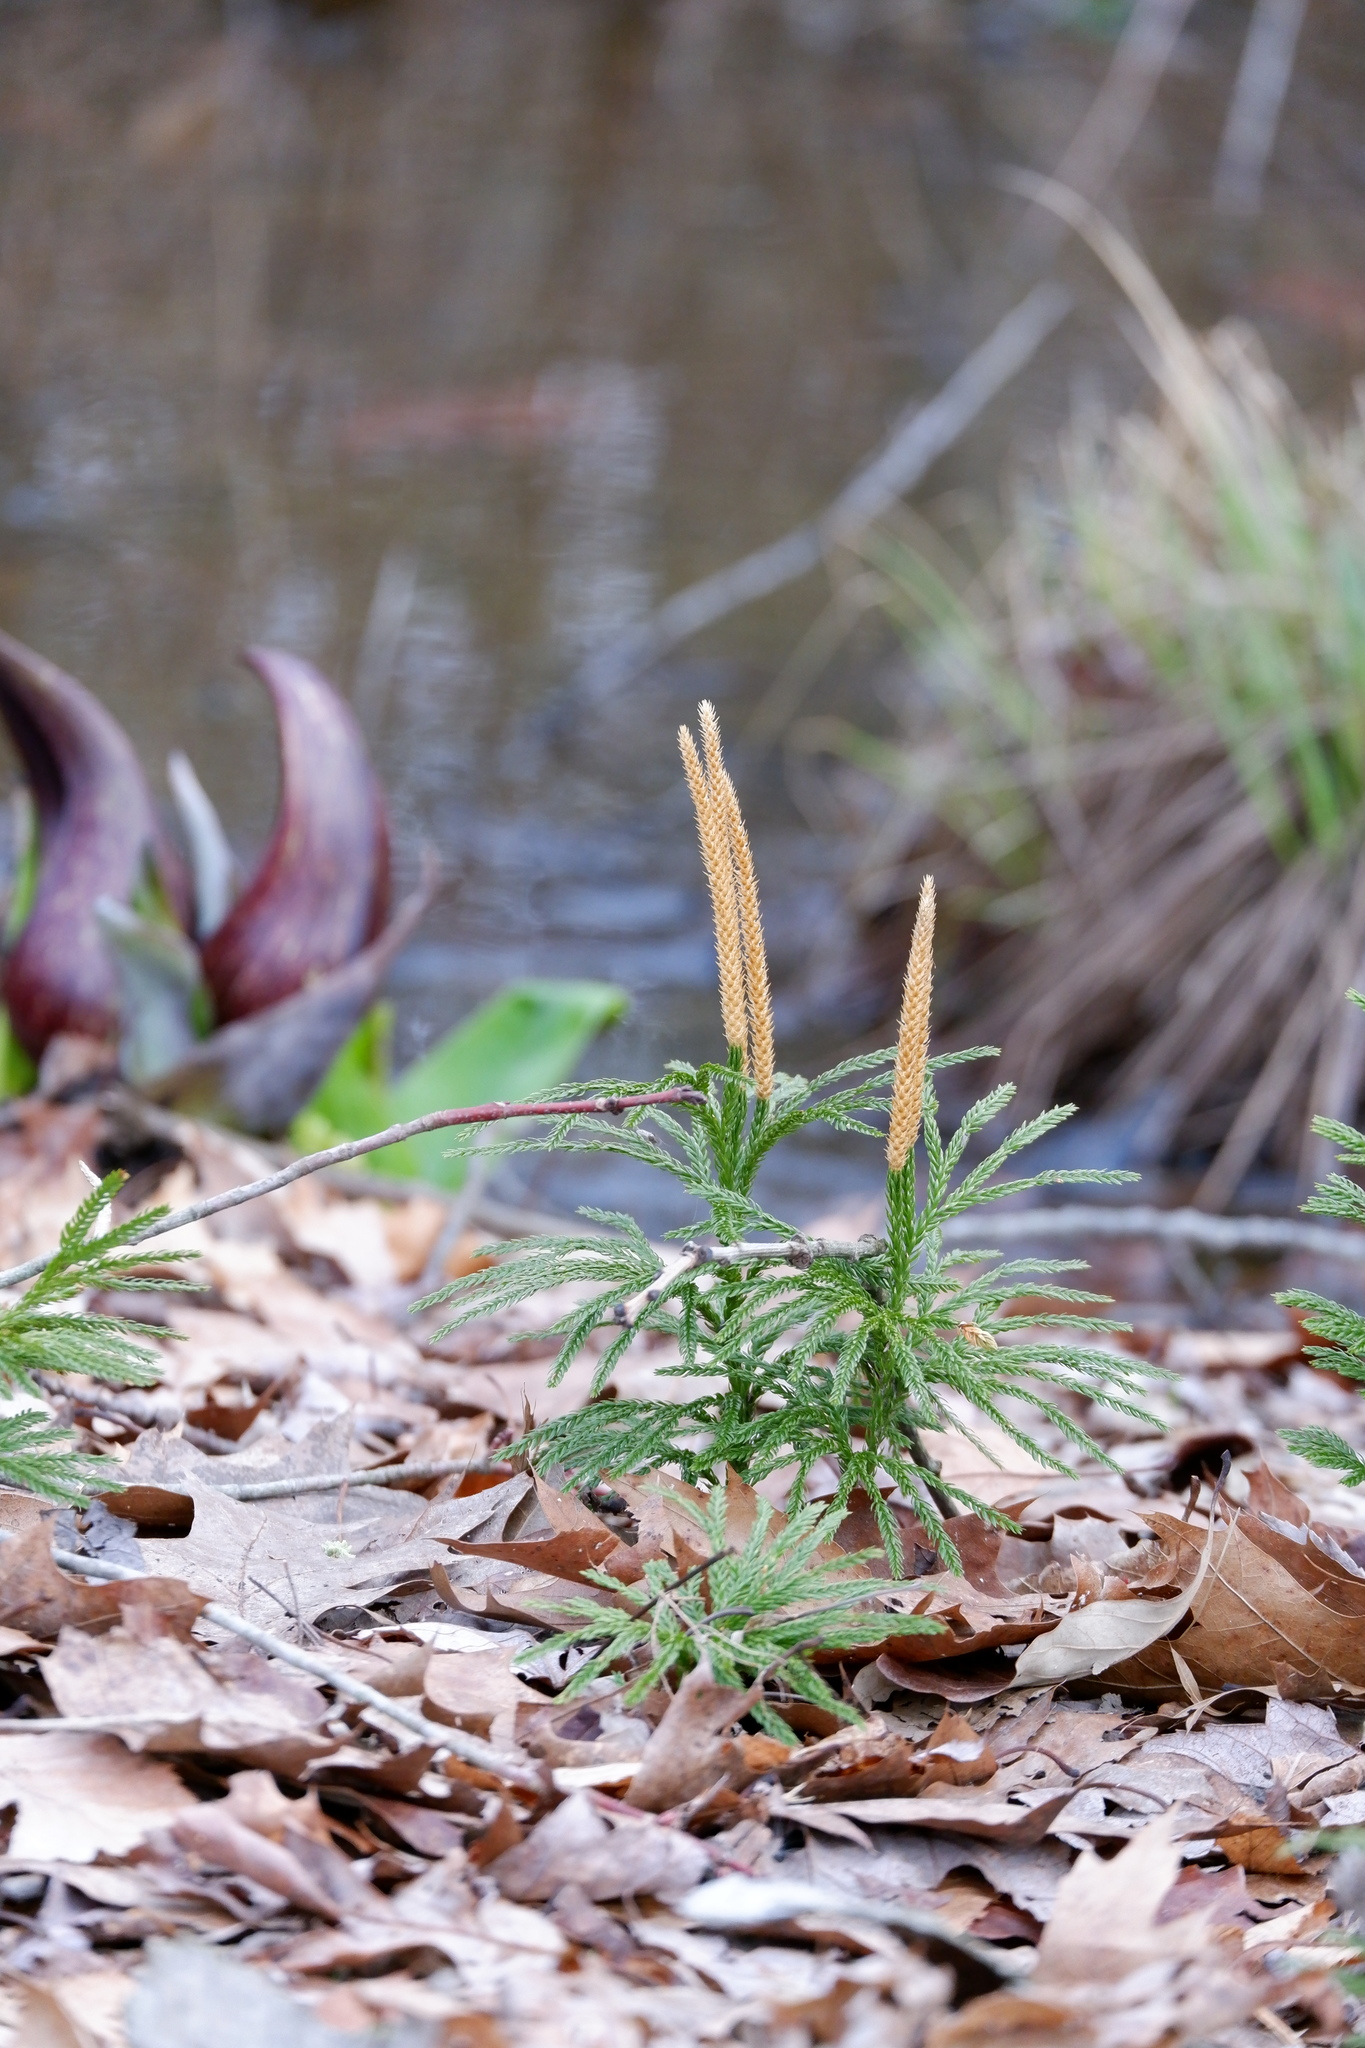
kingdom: Plantae
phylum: Tracheophyta
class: Lycopodiopsida
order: Lycopodiales
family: Lycopodiaceae
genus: Dendrolycopodium
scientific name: Dendrolycopodium obscurum
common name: Common ground-pine
